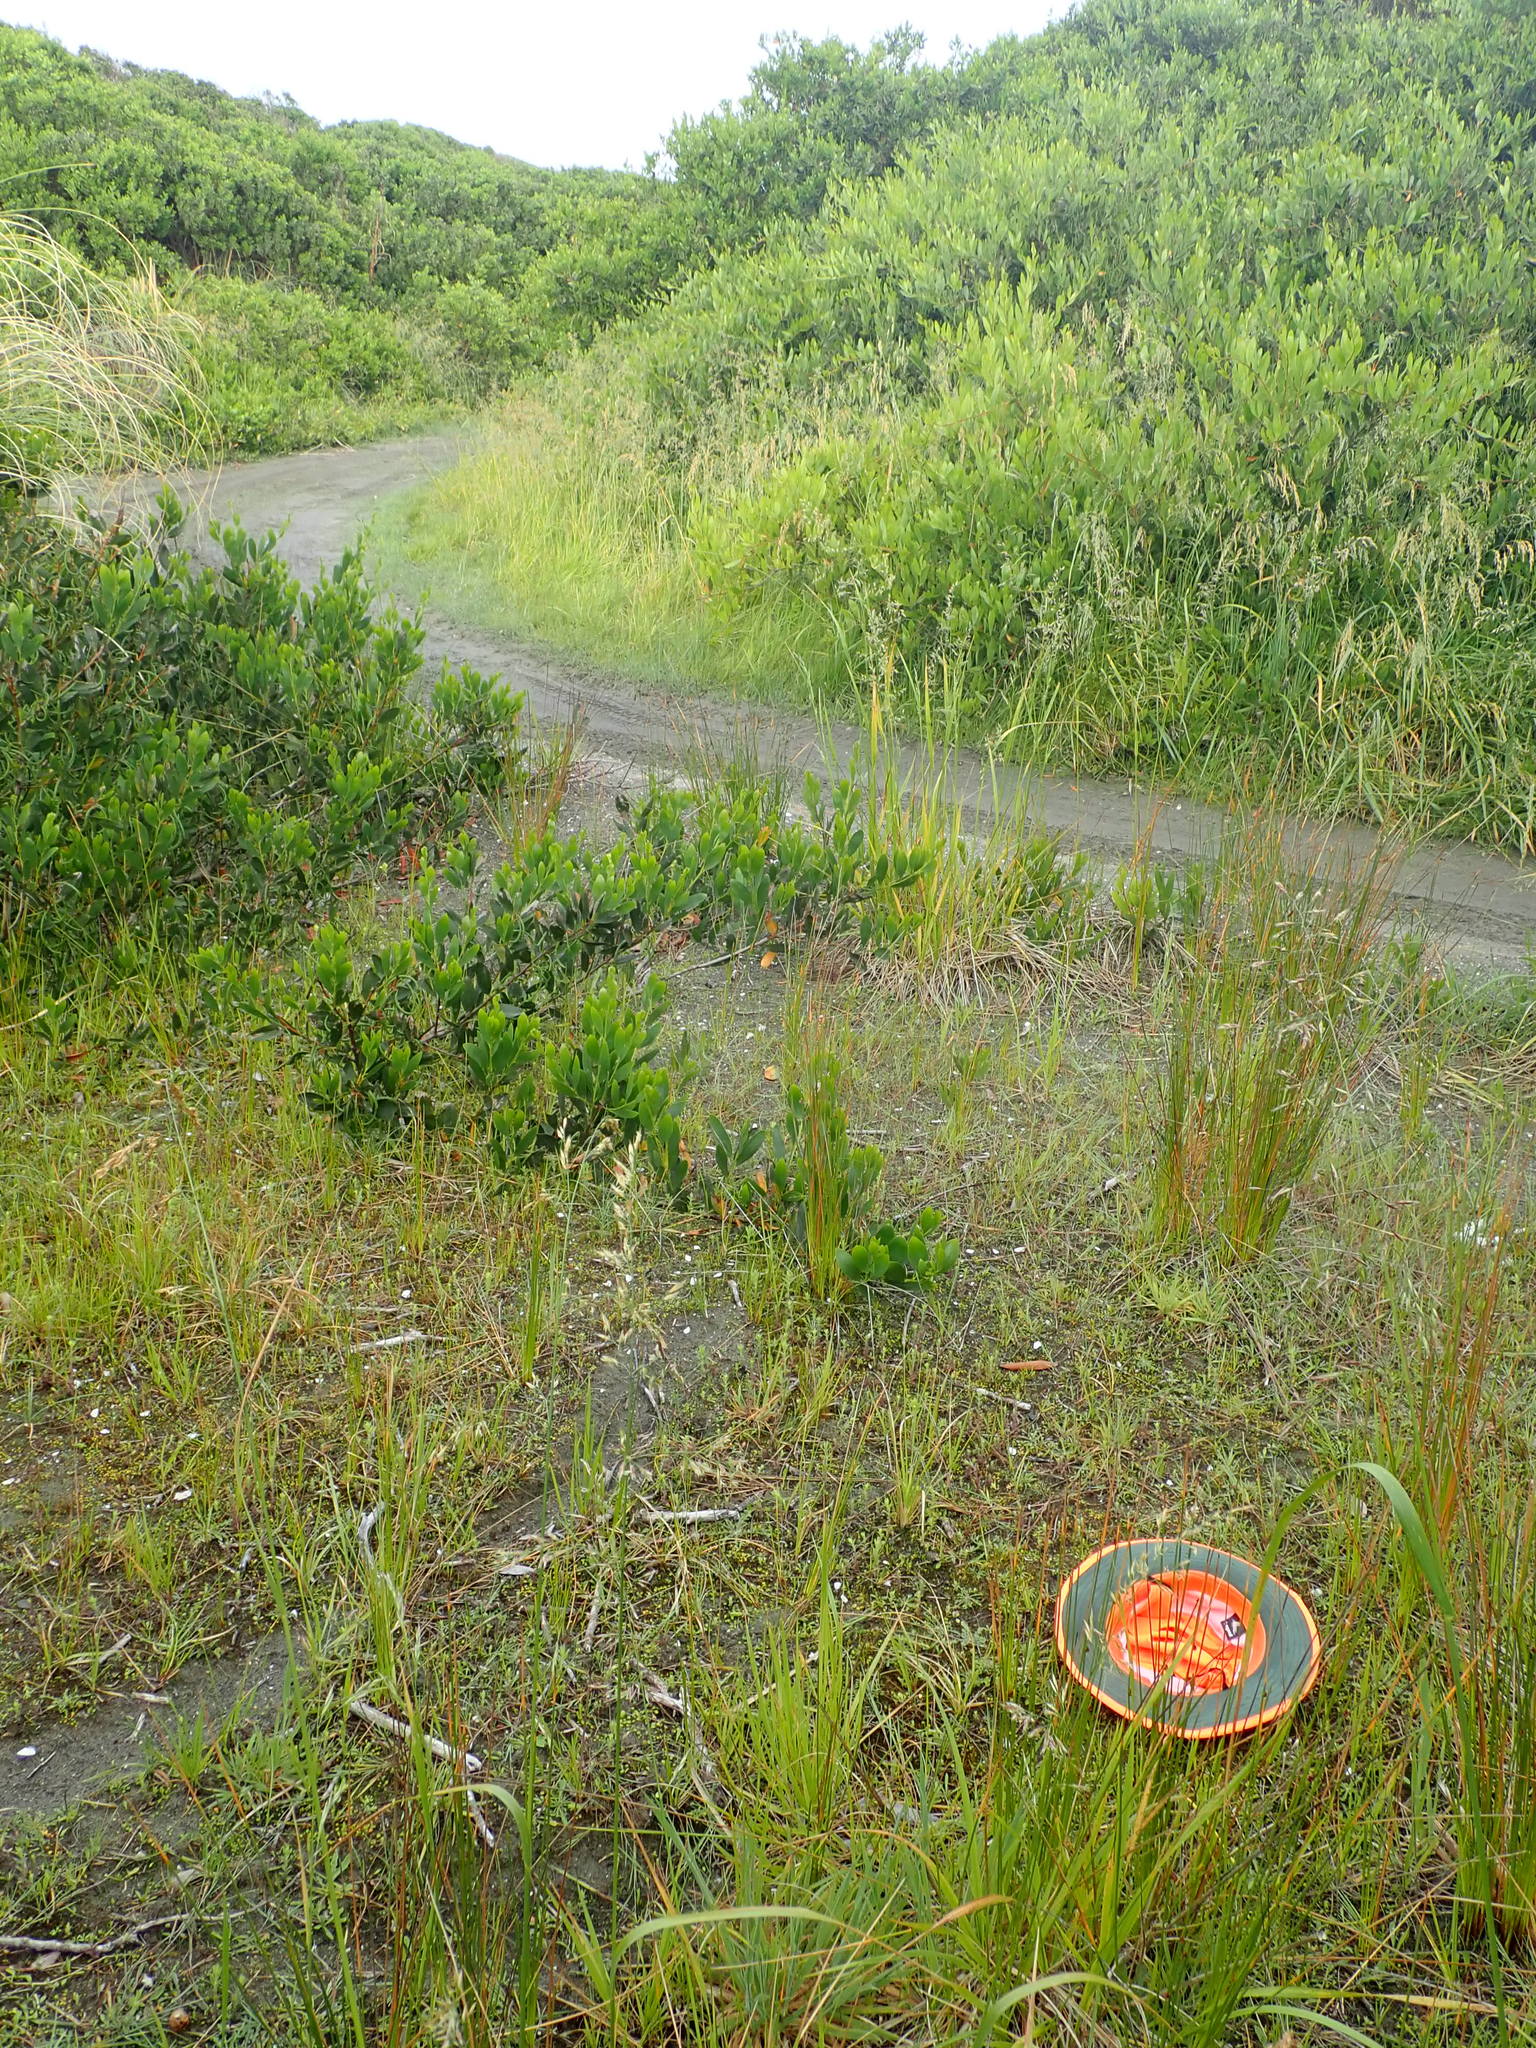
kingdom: Plantae
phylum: Tracheophyta
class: Liliopsida
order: Poales
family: Cyperaceae
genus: Isolepis
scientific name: Isolepis basilaris
